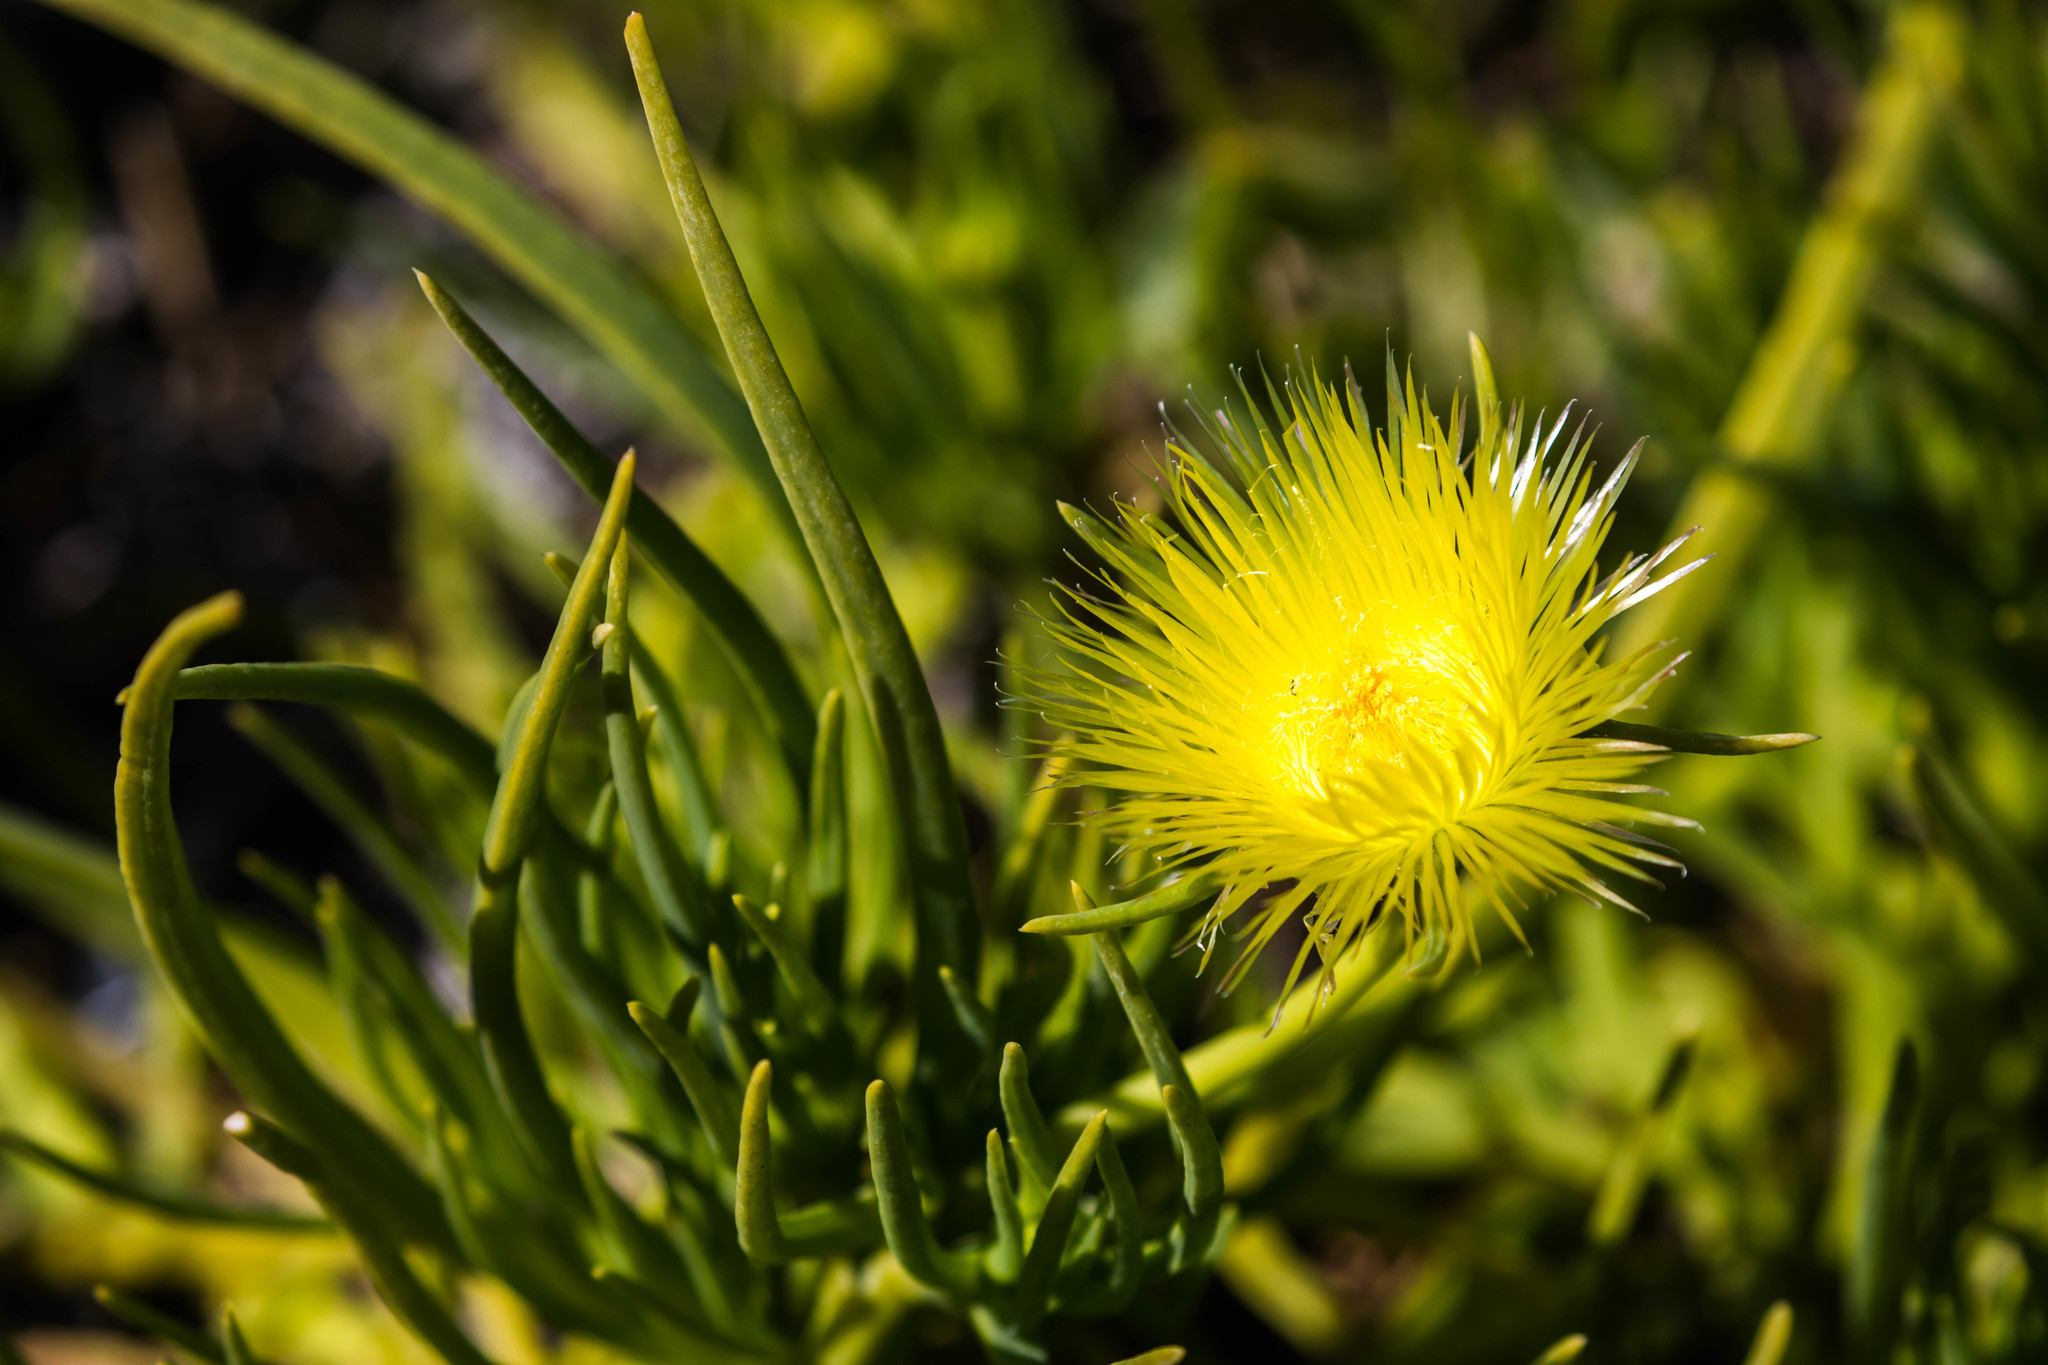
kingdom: Plantae
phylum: Tracheophyta
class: Magnoliopsida
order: Caryophyllales
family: Aizoaceae
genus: Conicosia
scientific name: Conicosia pugioniformis
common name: Narrow-leaved iceplant
